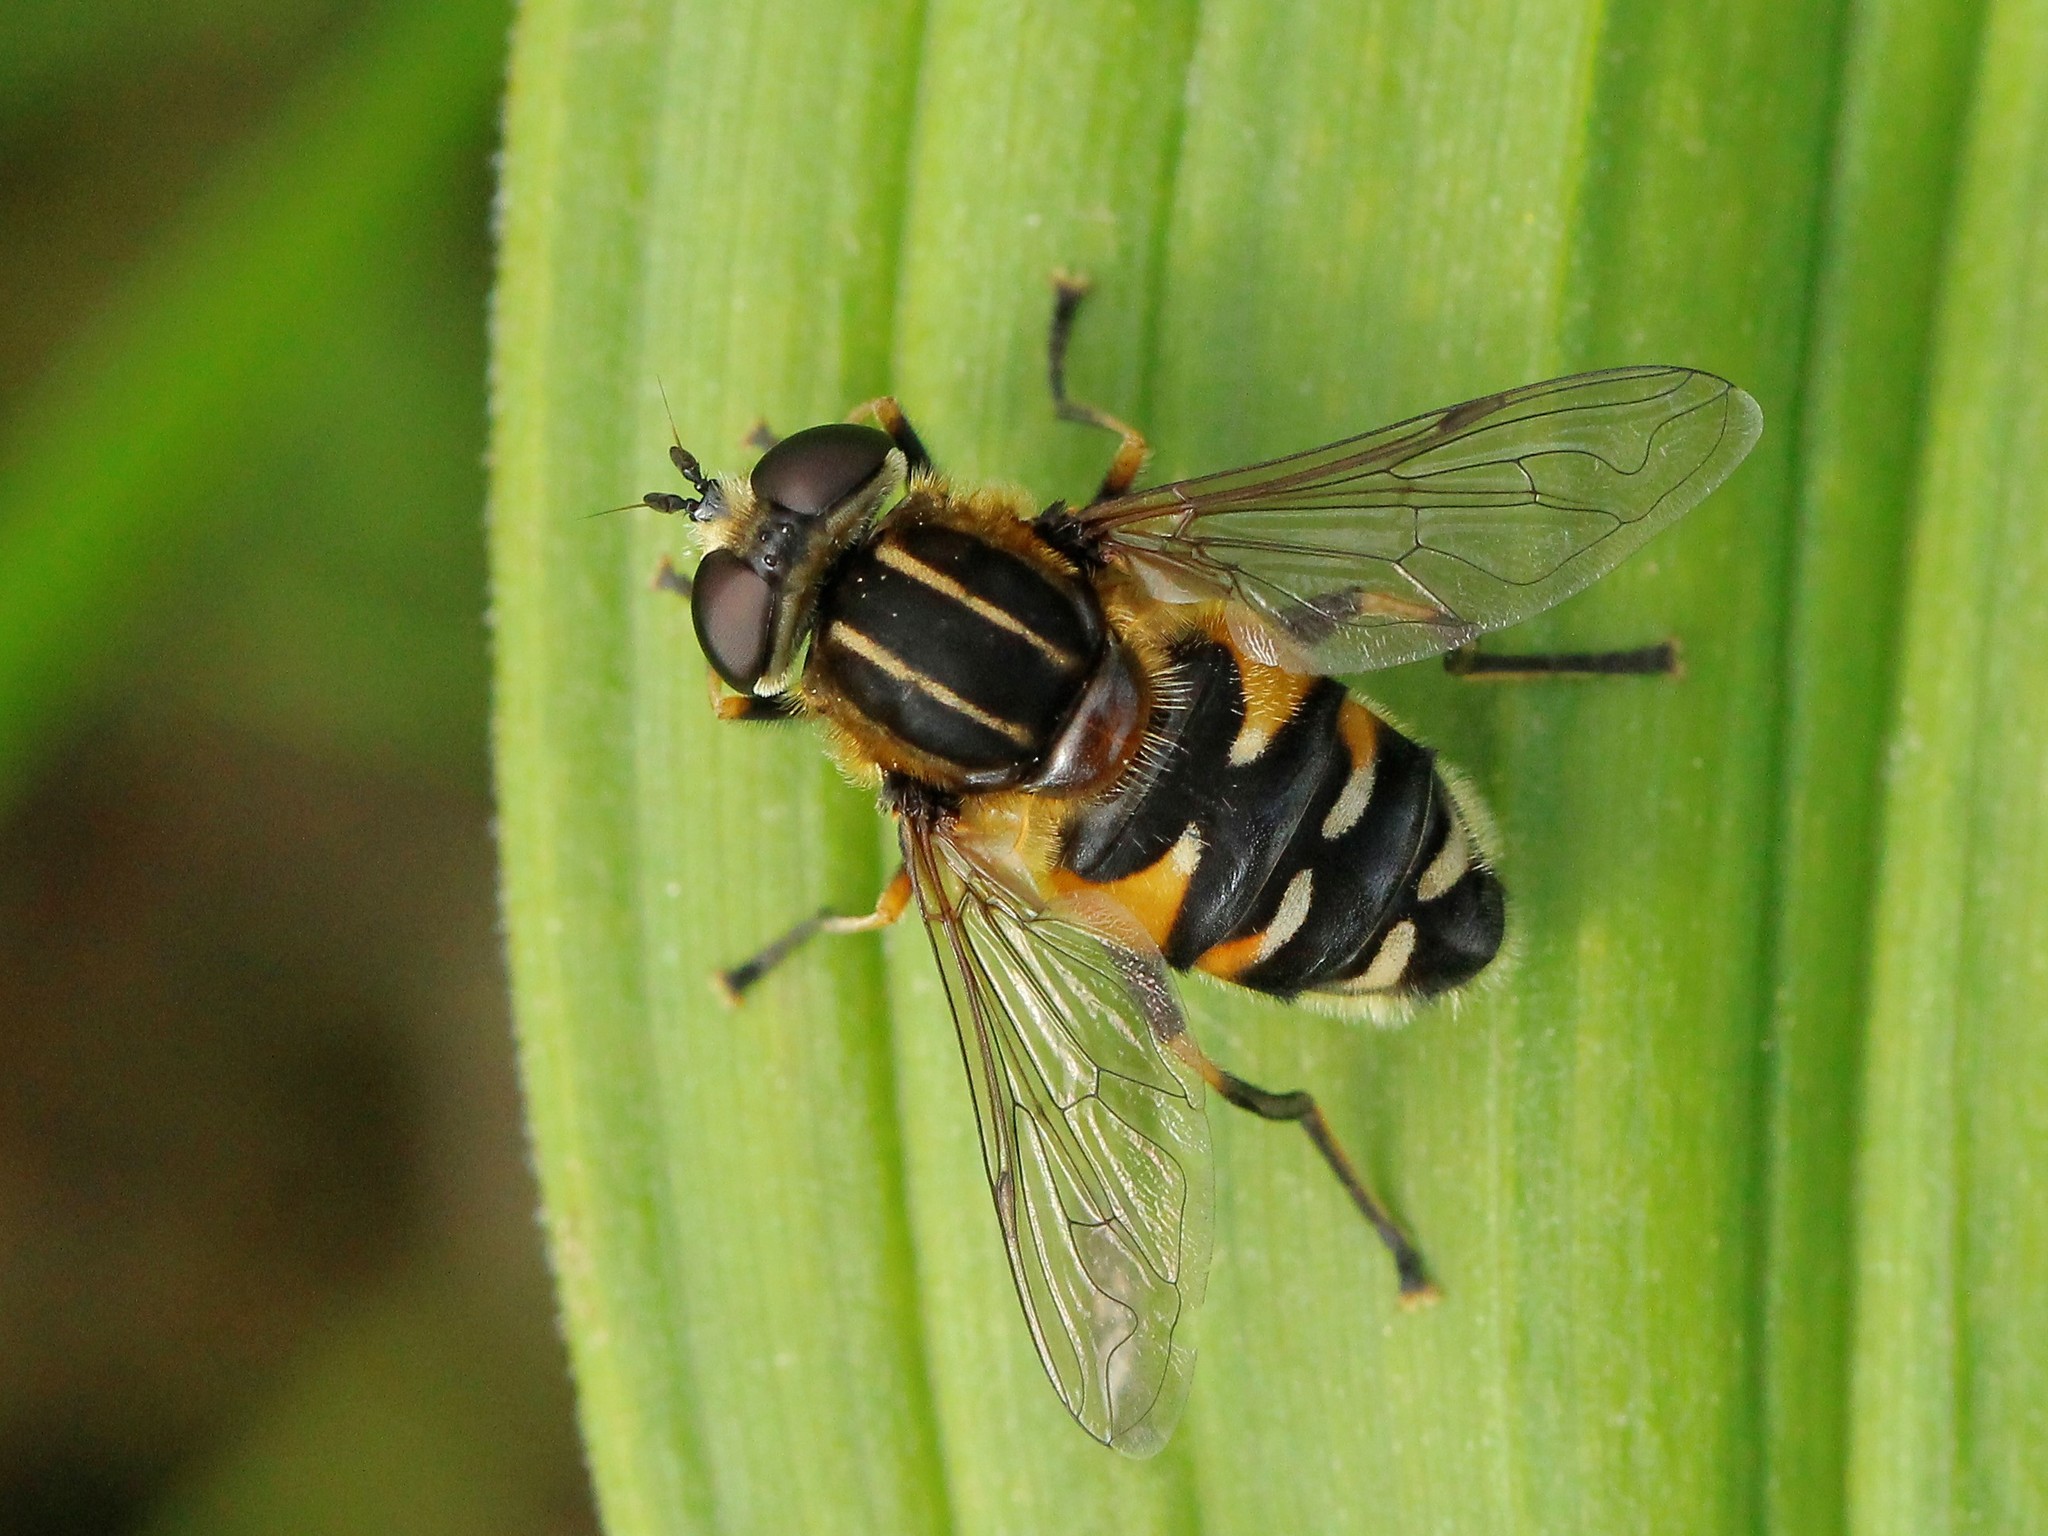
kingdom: Animalia
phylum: Arthropoda
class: Insecta
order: Diptera
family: Syrphidae
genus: Helophilus
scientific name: Helophilus groenlandicus
